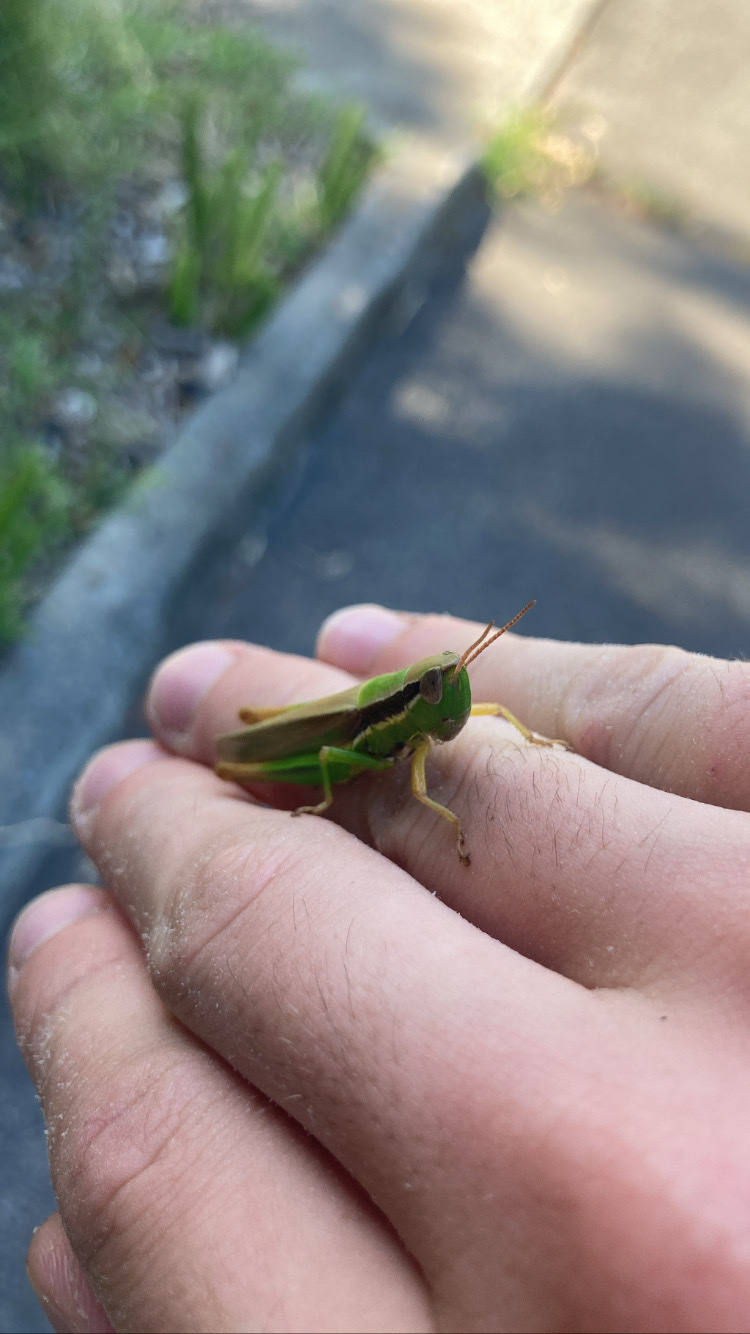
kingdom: Animalia
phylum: Arthropoda
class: Insecta
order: Orthoptera
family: Acrididae
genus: Bermius
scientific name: Bermius brachycerus
